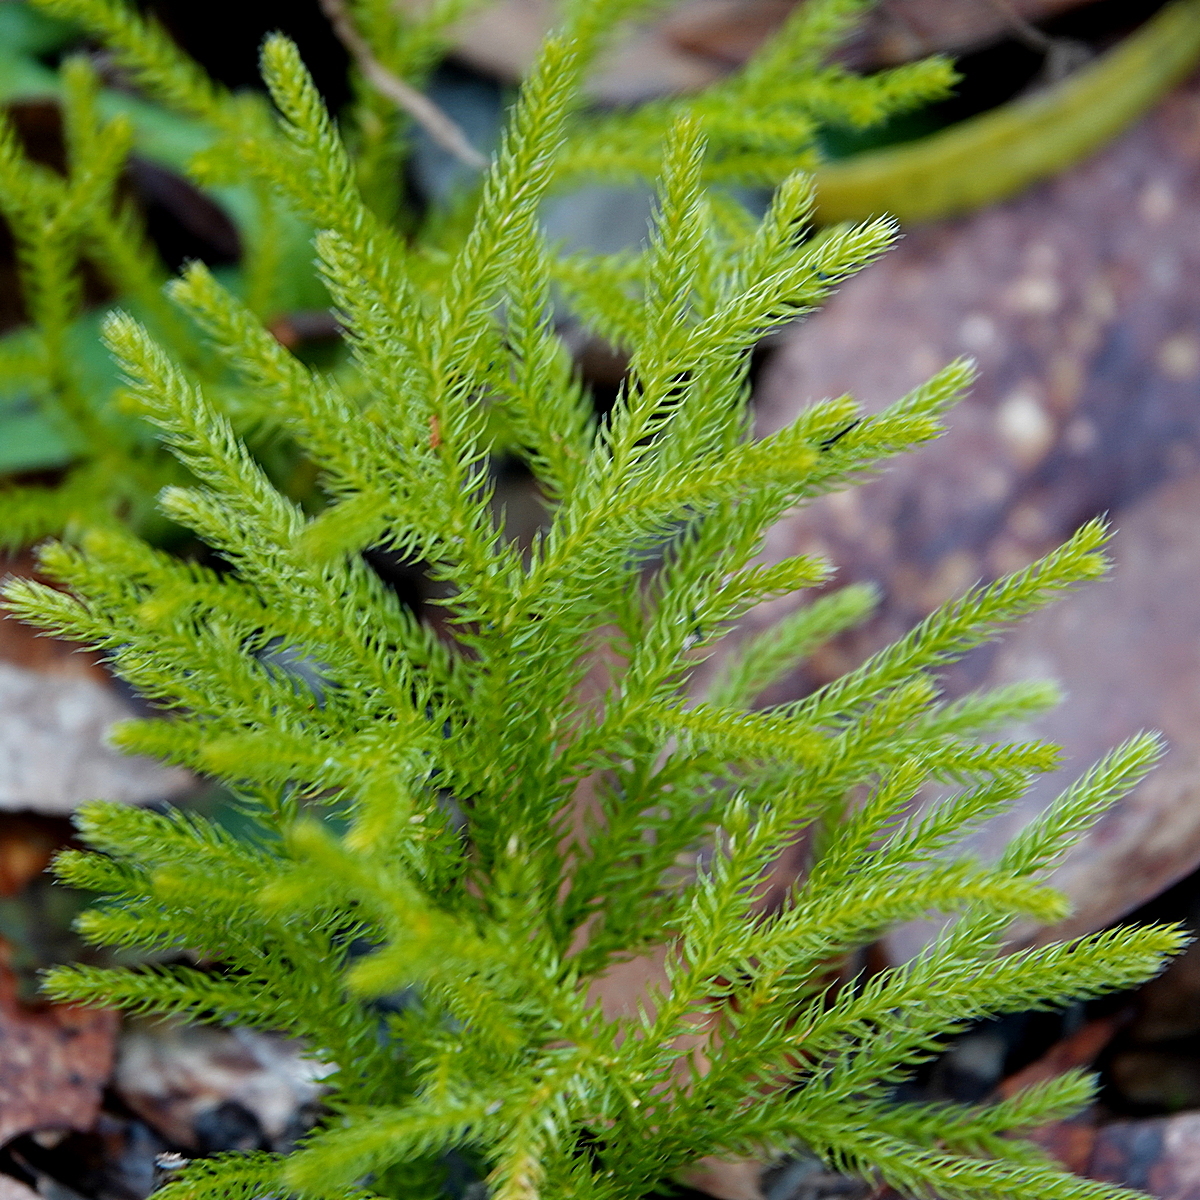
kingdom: Plantae
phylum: Tracheophyta
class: Lycopodiopsida
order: Lycopodiales
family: Lycopodiaceae
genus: Pseudolycopodium
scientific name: Pseudolycopodium densum
